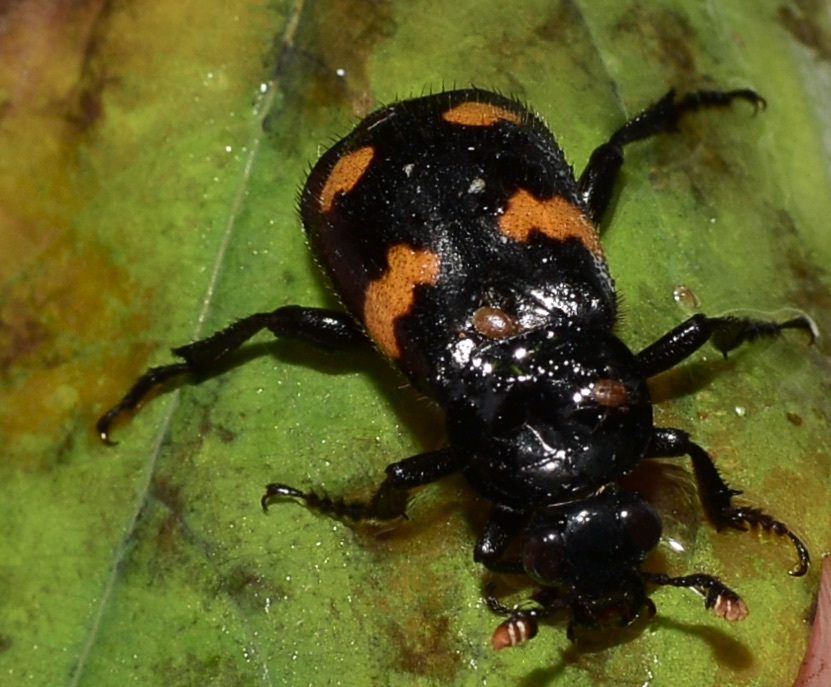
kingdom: Animalia
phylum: Arthropoda
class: Insecta
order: Coleoptera
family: Staphylinidae
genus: Nicrophorus
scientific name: Nicrophorus orbicollis
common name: Roundneck sexton beetle
